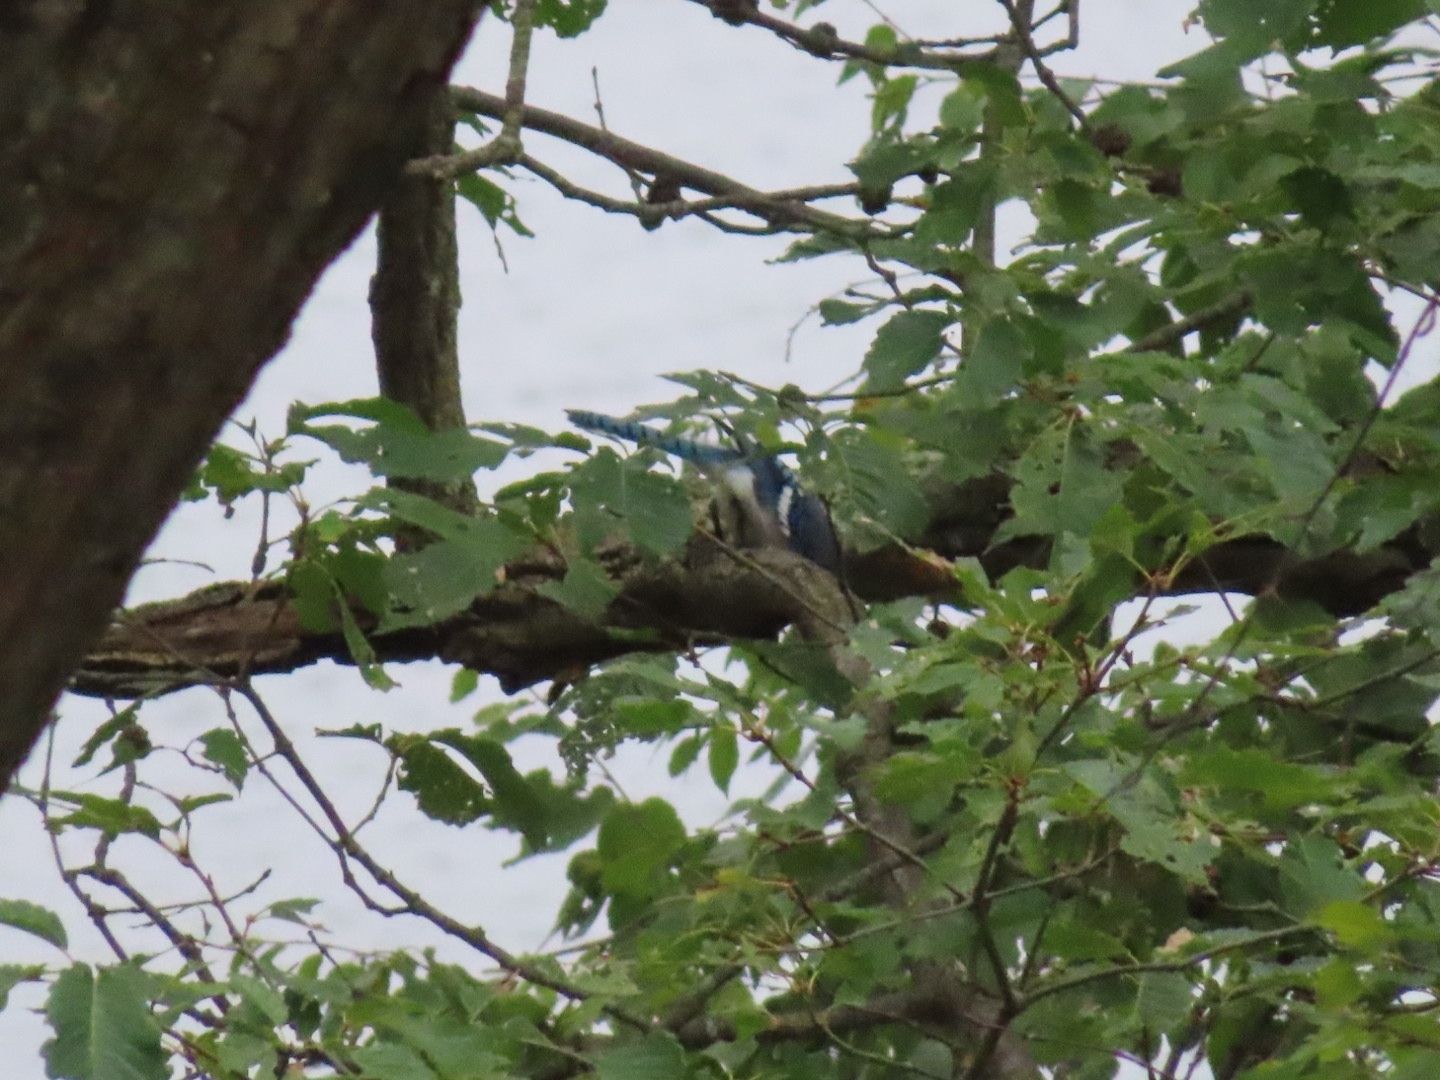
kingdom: Animalia
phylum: Chordata
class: Aves
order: Passeriformes
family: Corvidae
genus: Cyanocitta
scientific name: Cyanocitta cristata
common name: Blue jay
